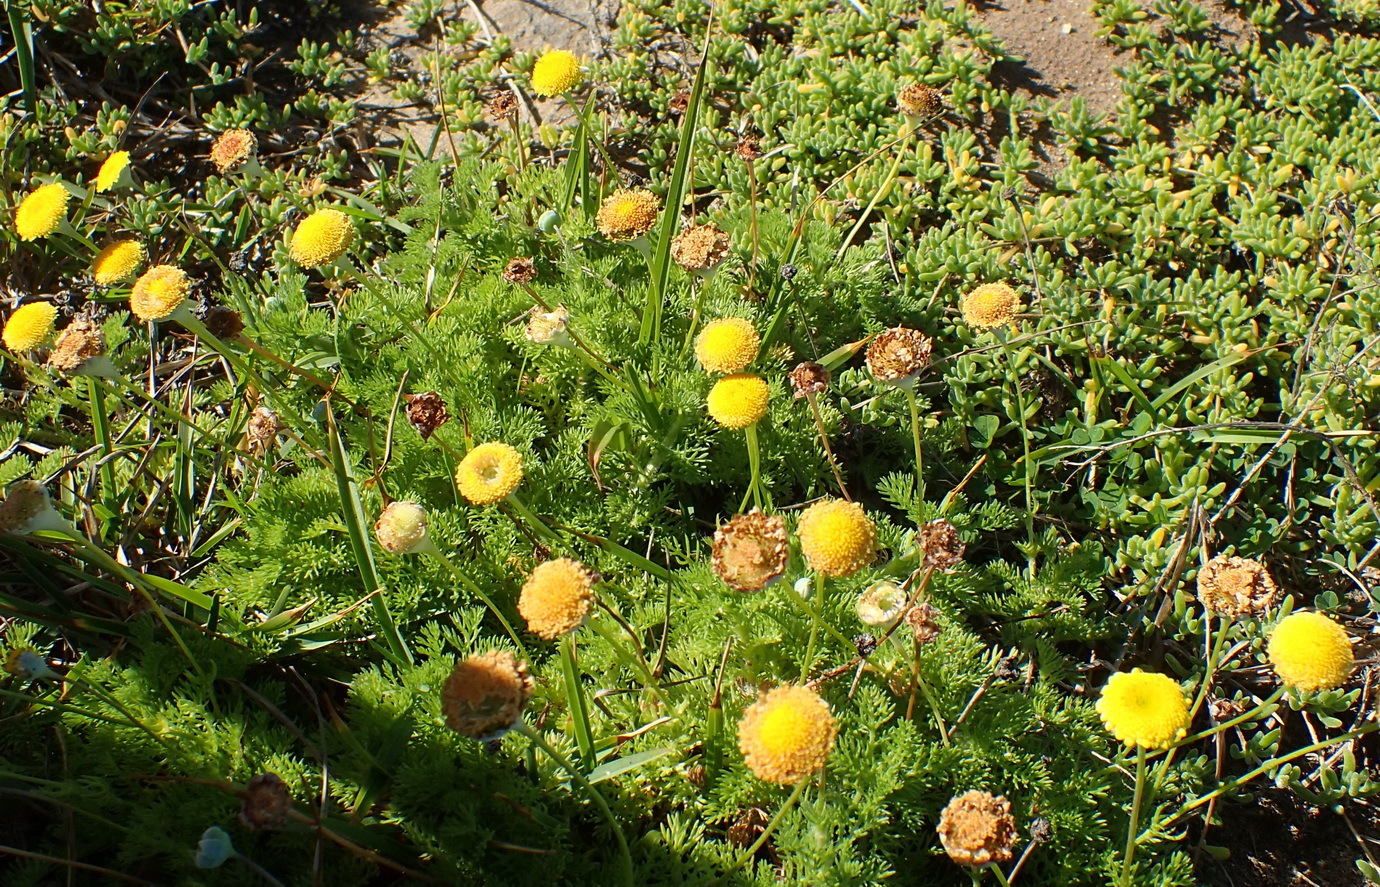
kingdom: Plantae
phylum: Tracheophyta
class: Magnoliopsida
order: Asterales
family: Asteraceae
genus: Cotula
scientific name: Cotula discolor
